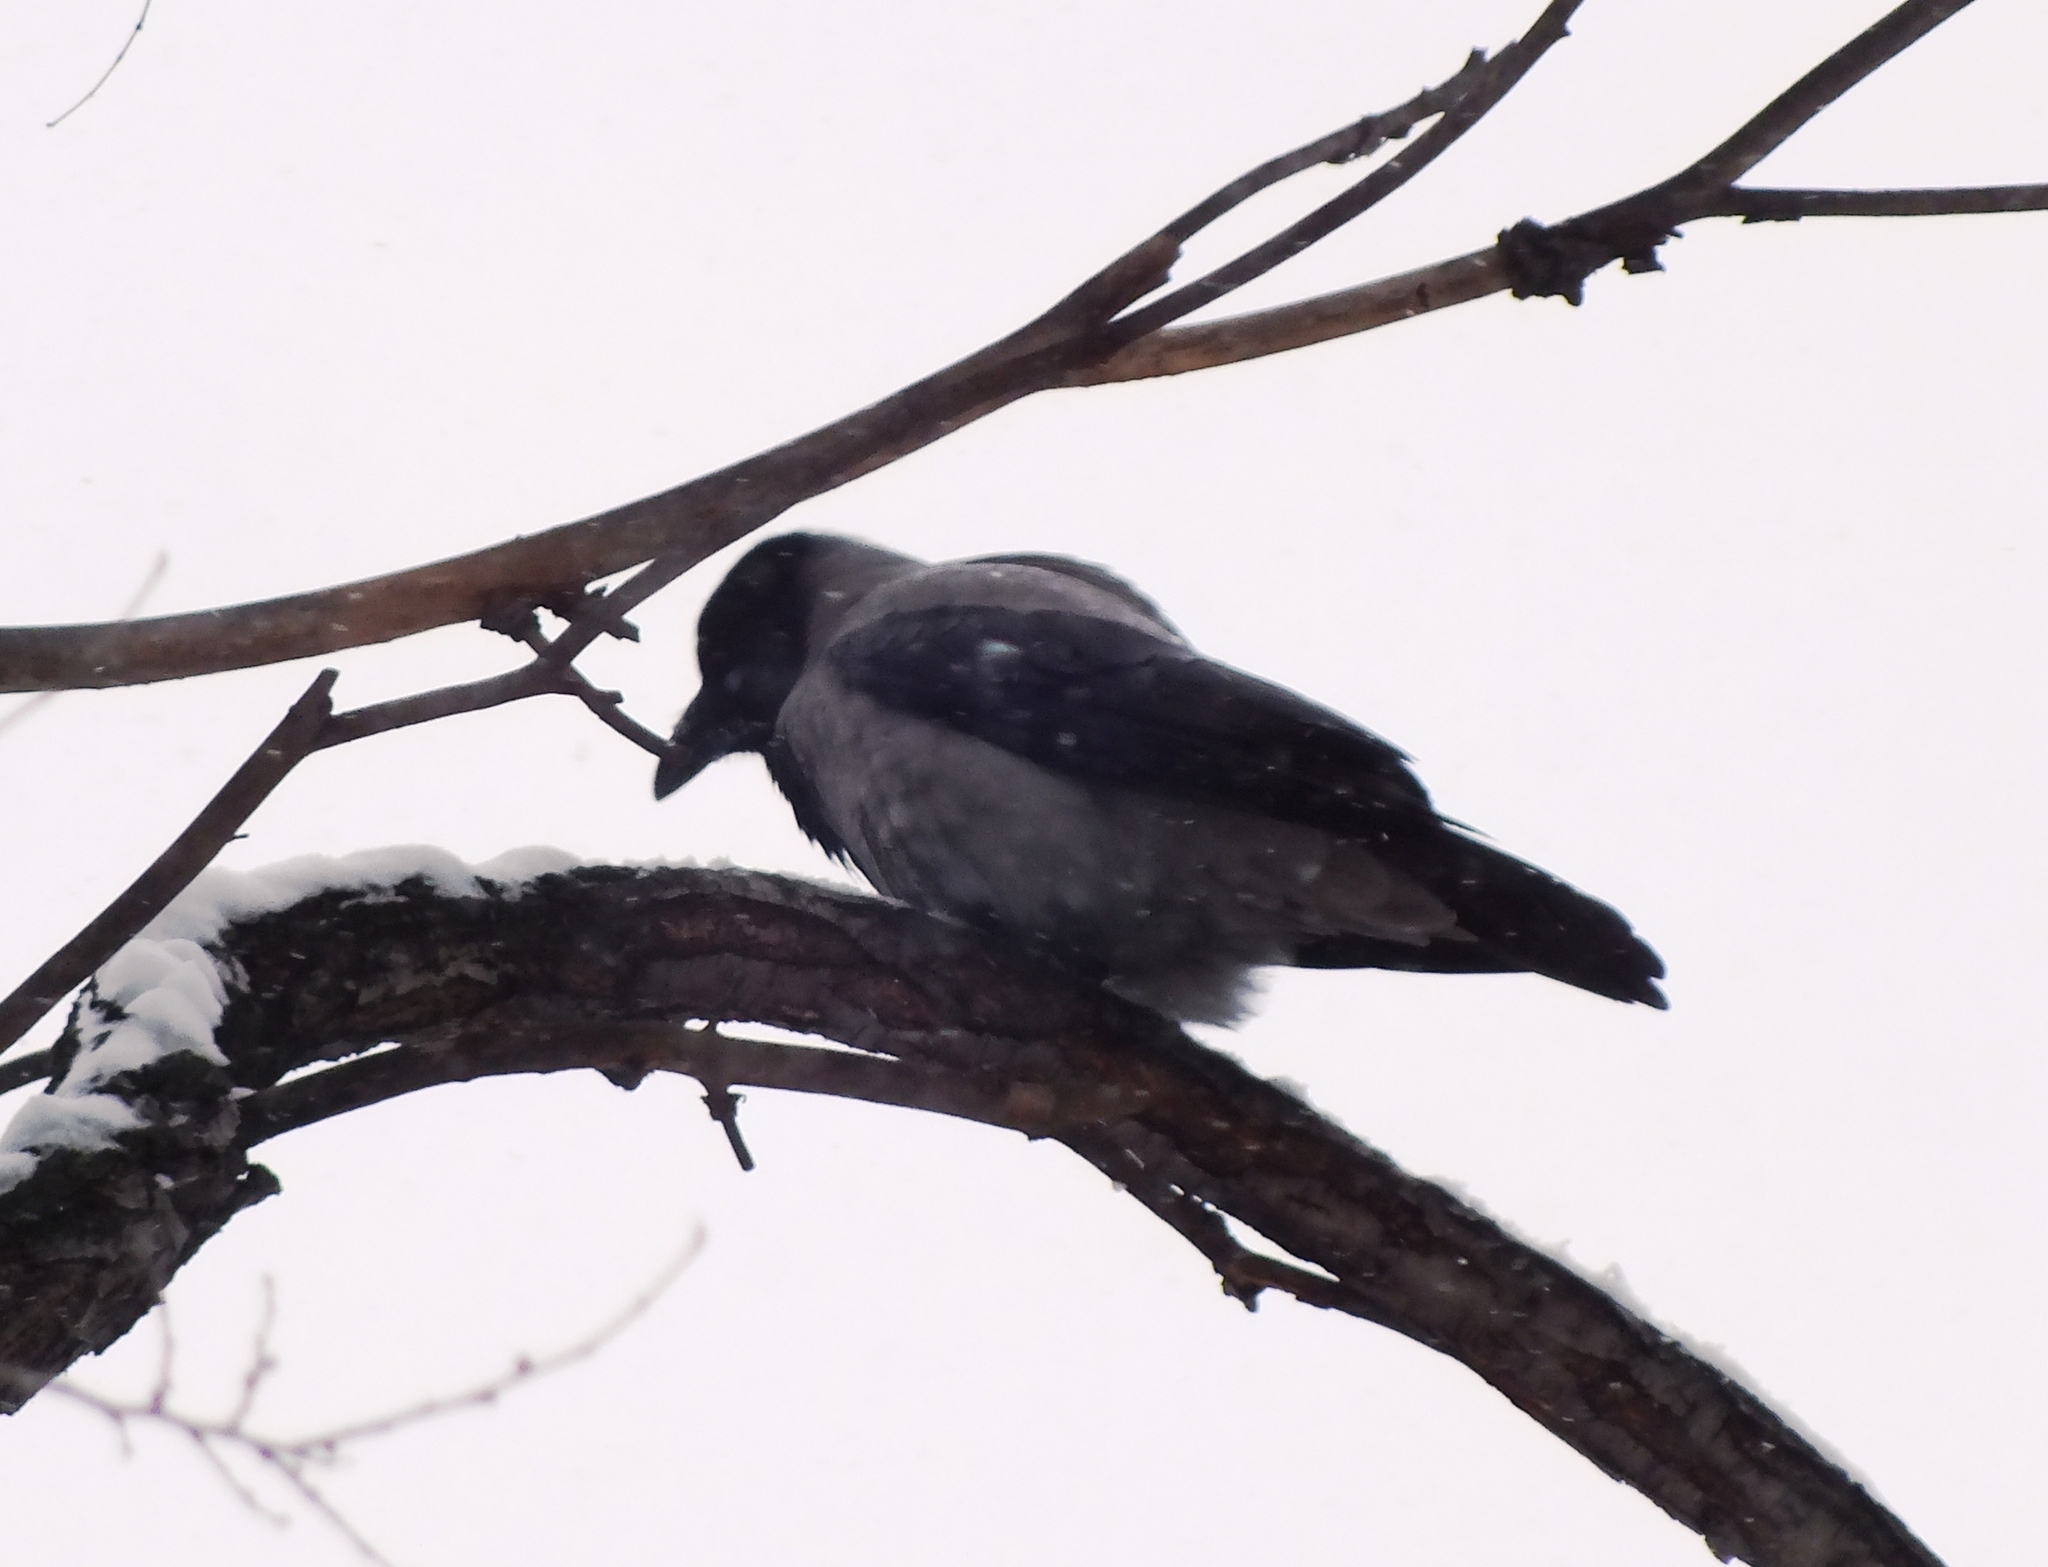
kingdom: Animalia
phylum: Chordata
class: Aves
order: Passeriformes
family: Corvidae
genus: Corvus
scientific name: Corvus cornix
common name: Hooded crow
